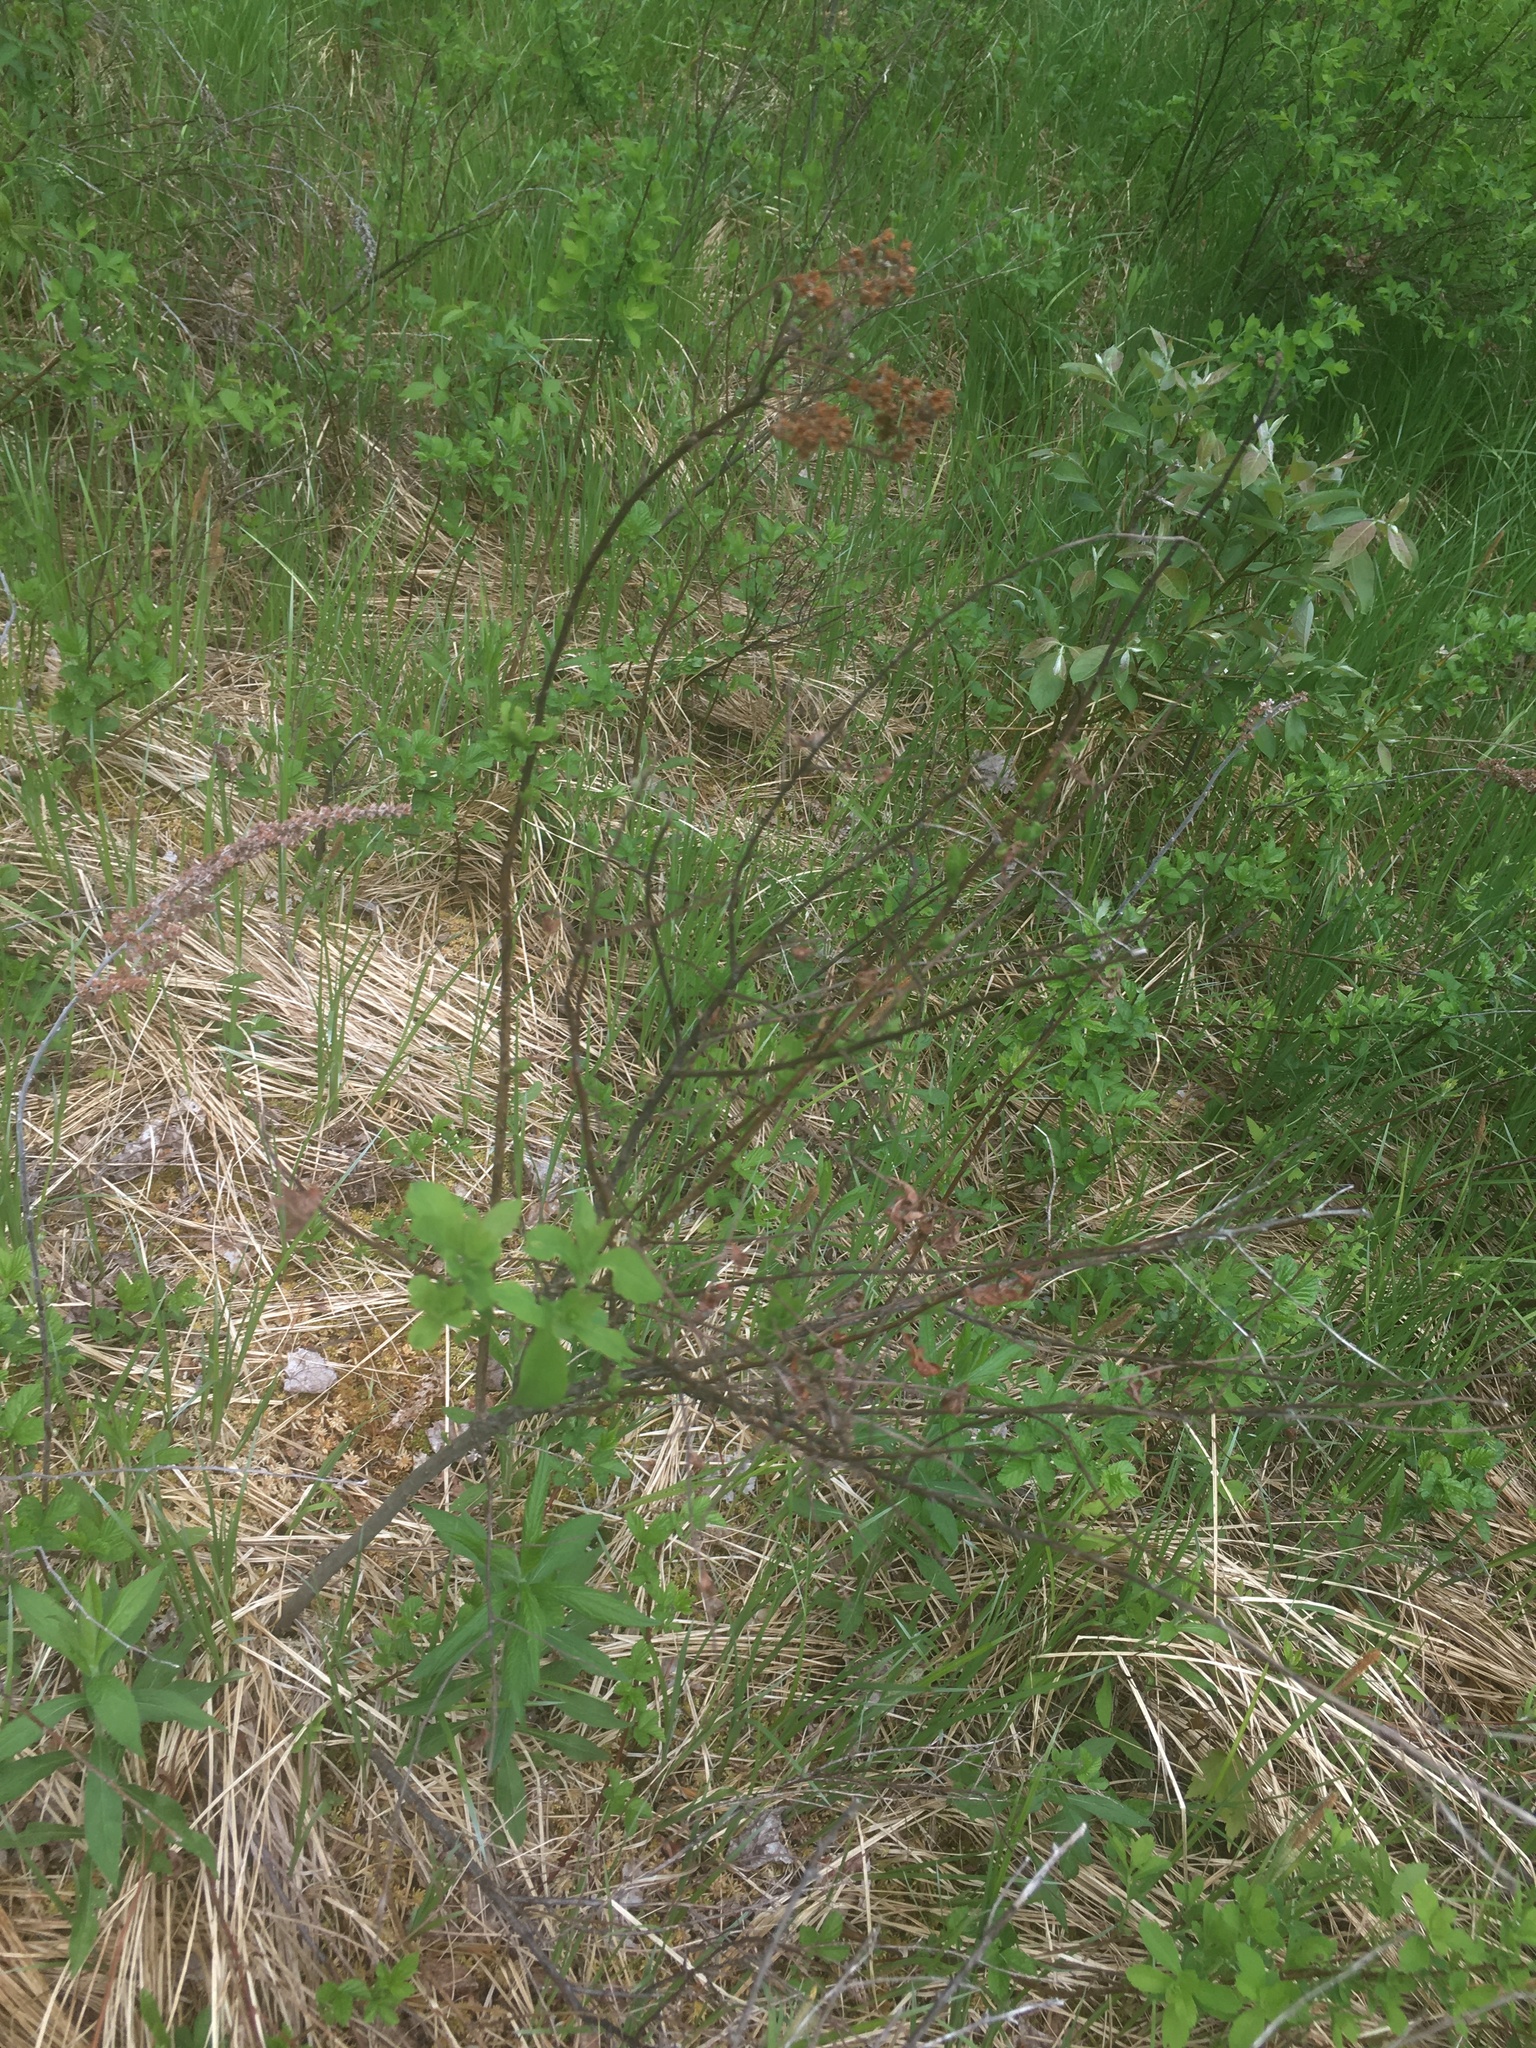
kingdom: Plantae
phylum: Tracheophyta
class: Magnoliopsida
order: Rosales
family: Rosaceae
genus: Spiraea
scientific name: Spiraea alba
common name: Pale bridewort
